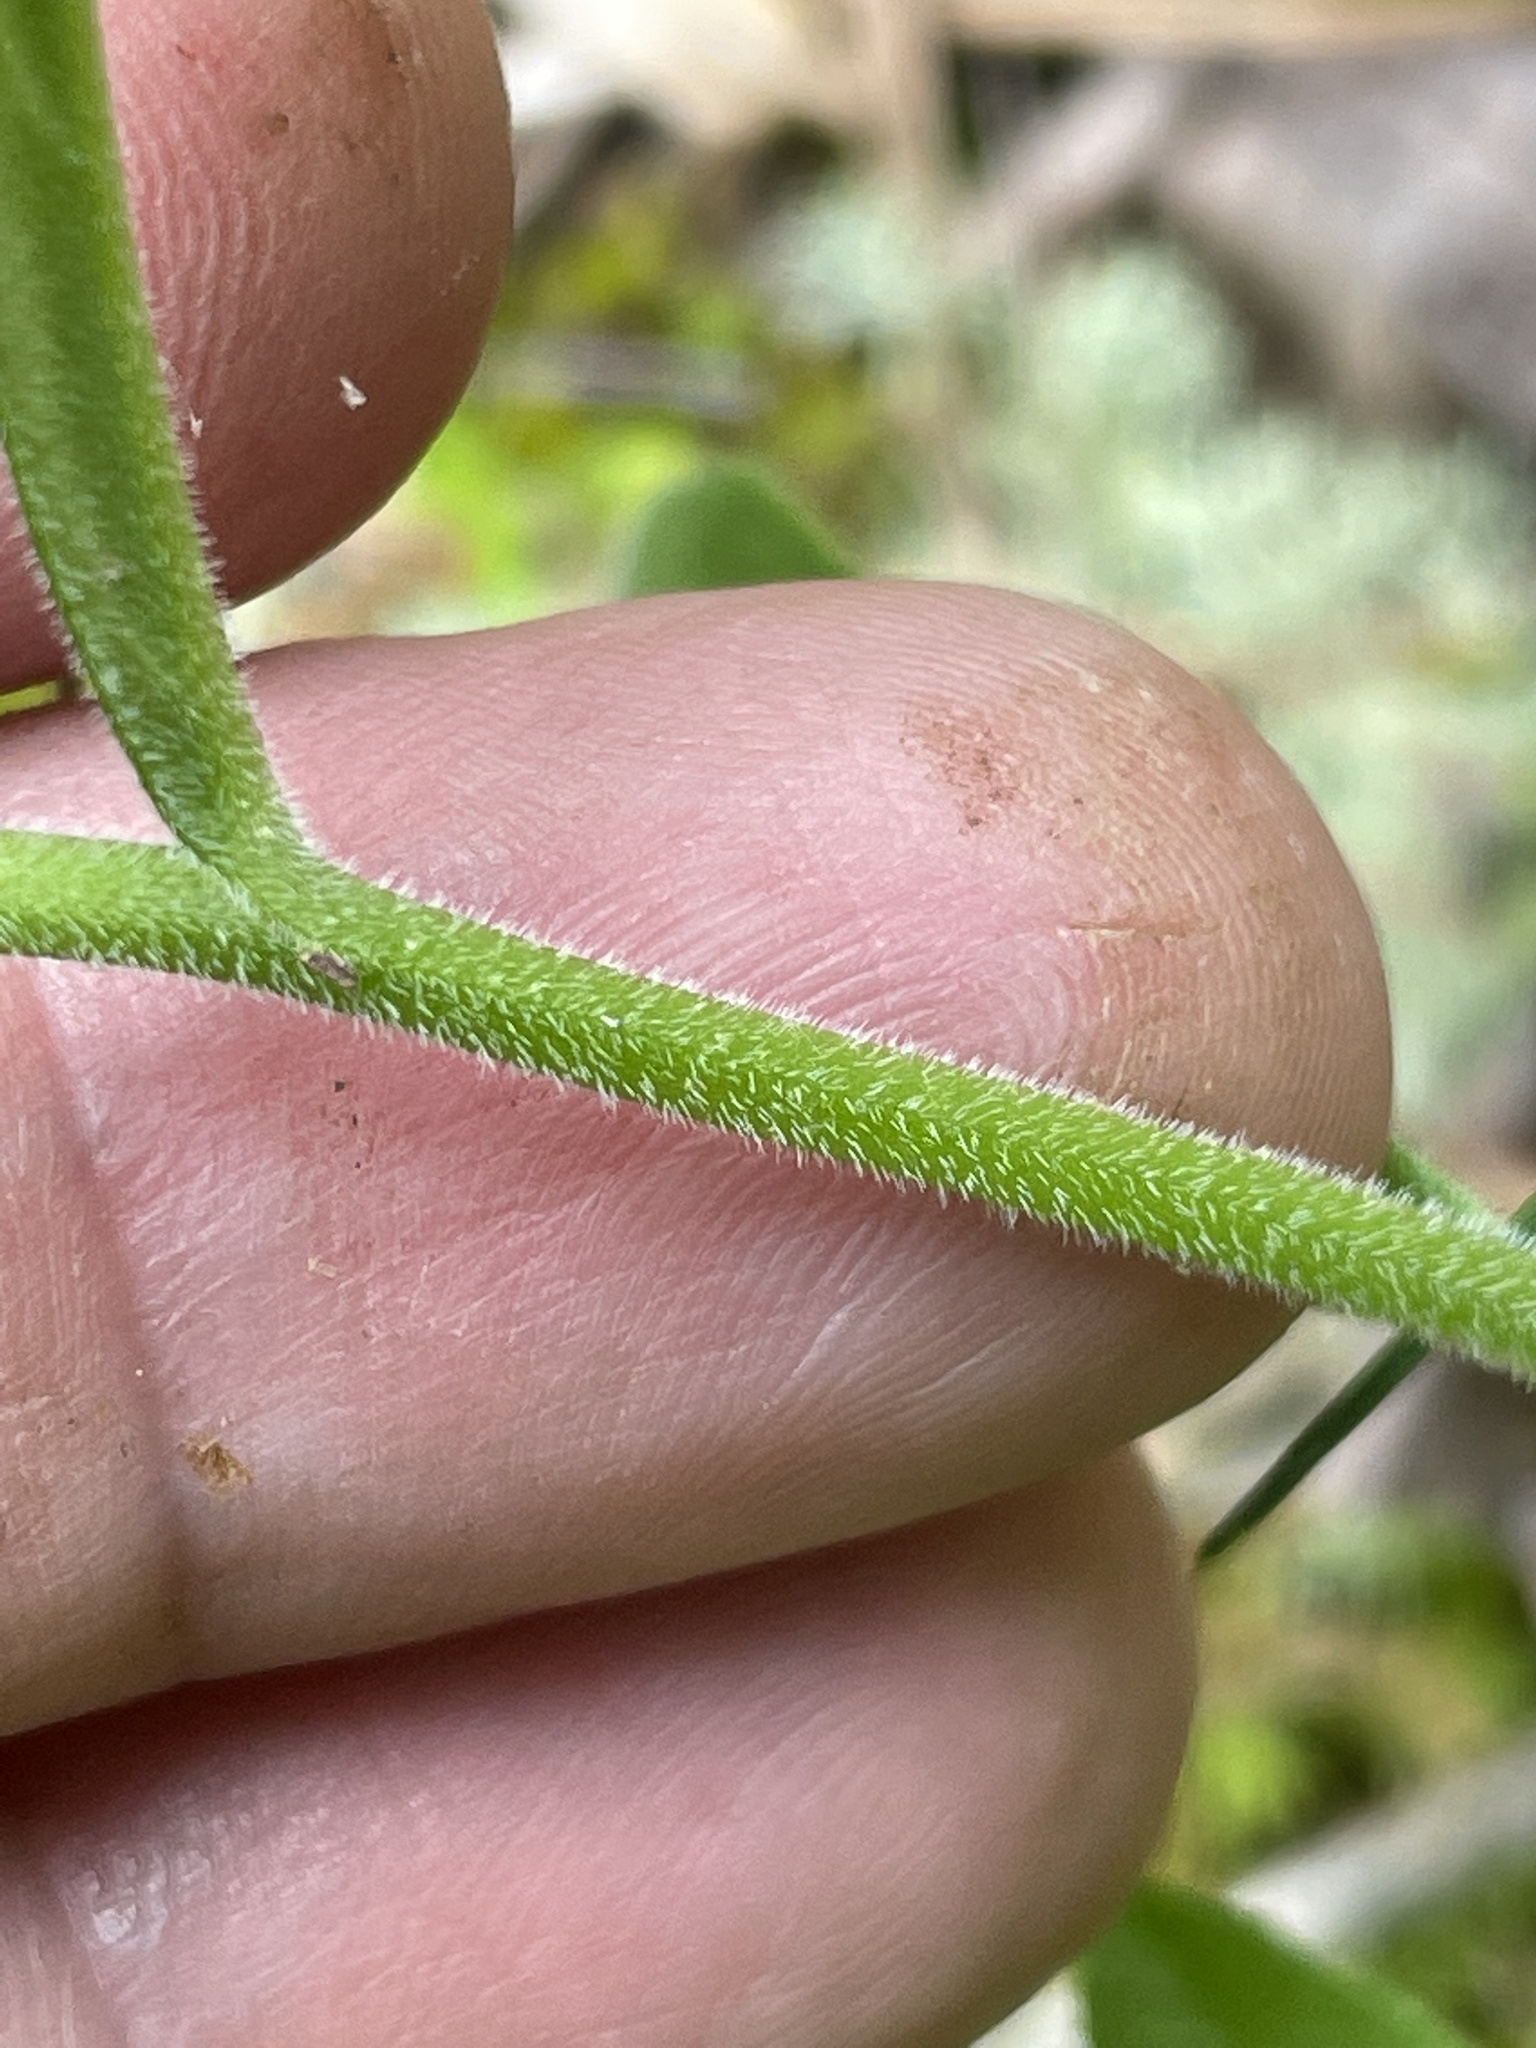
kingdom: Plantae
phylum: Tracheophyta
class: Magnoliopsida
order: Asterales
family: Campanulaceae
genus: Lobelia
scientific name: Lobelia puberula
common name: Purple dewdrop
